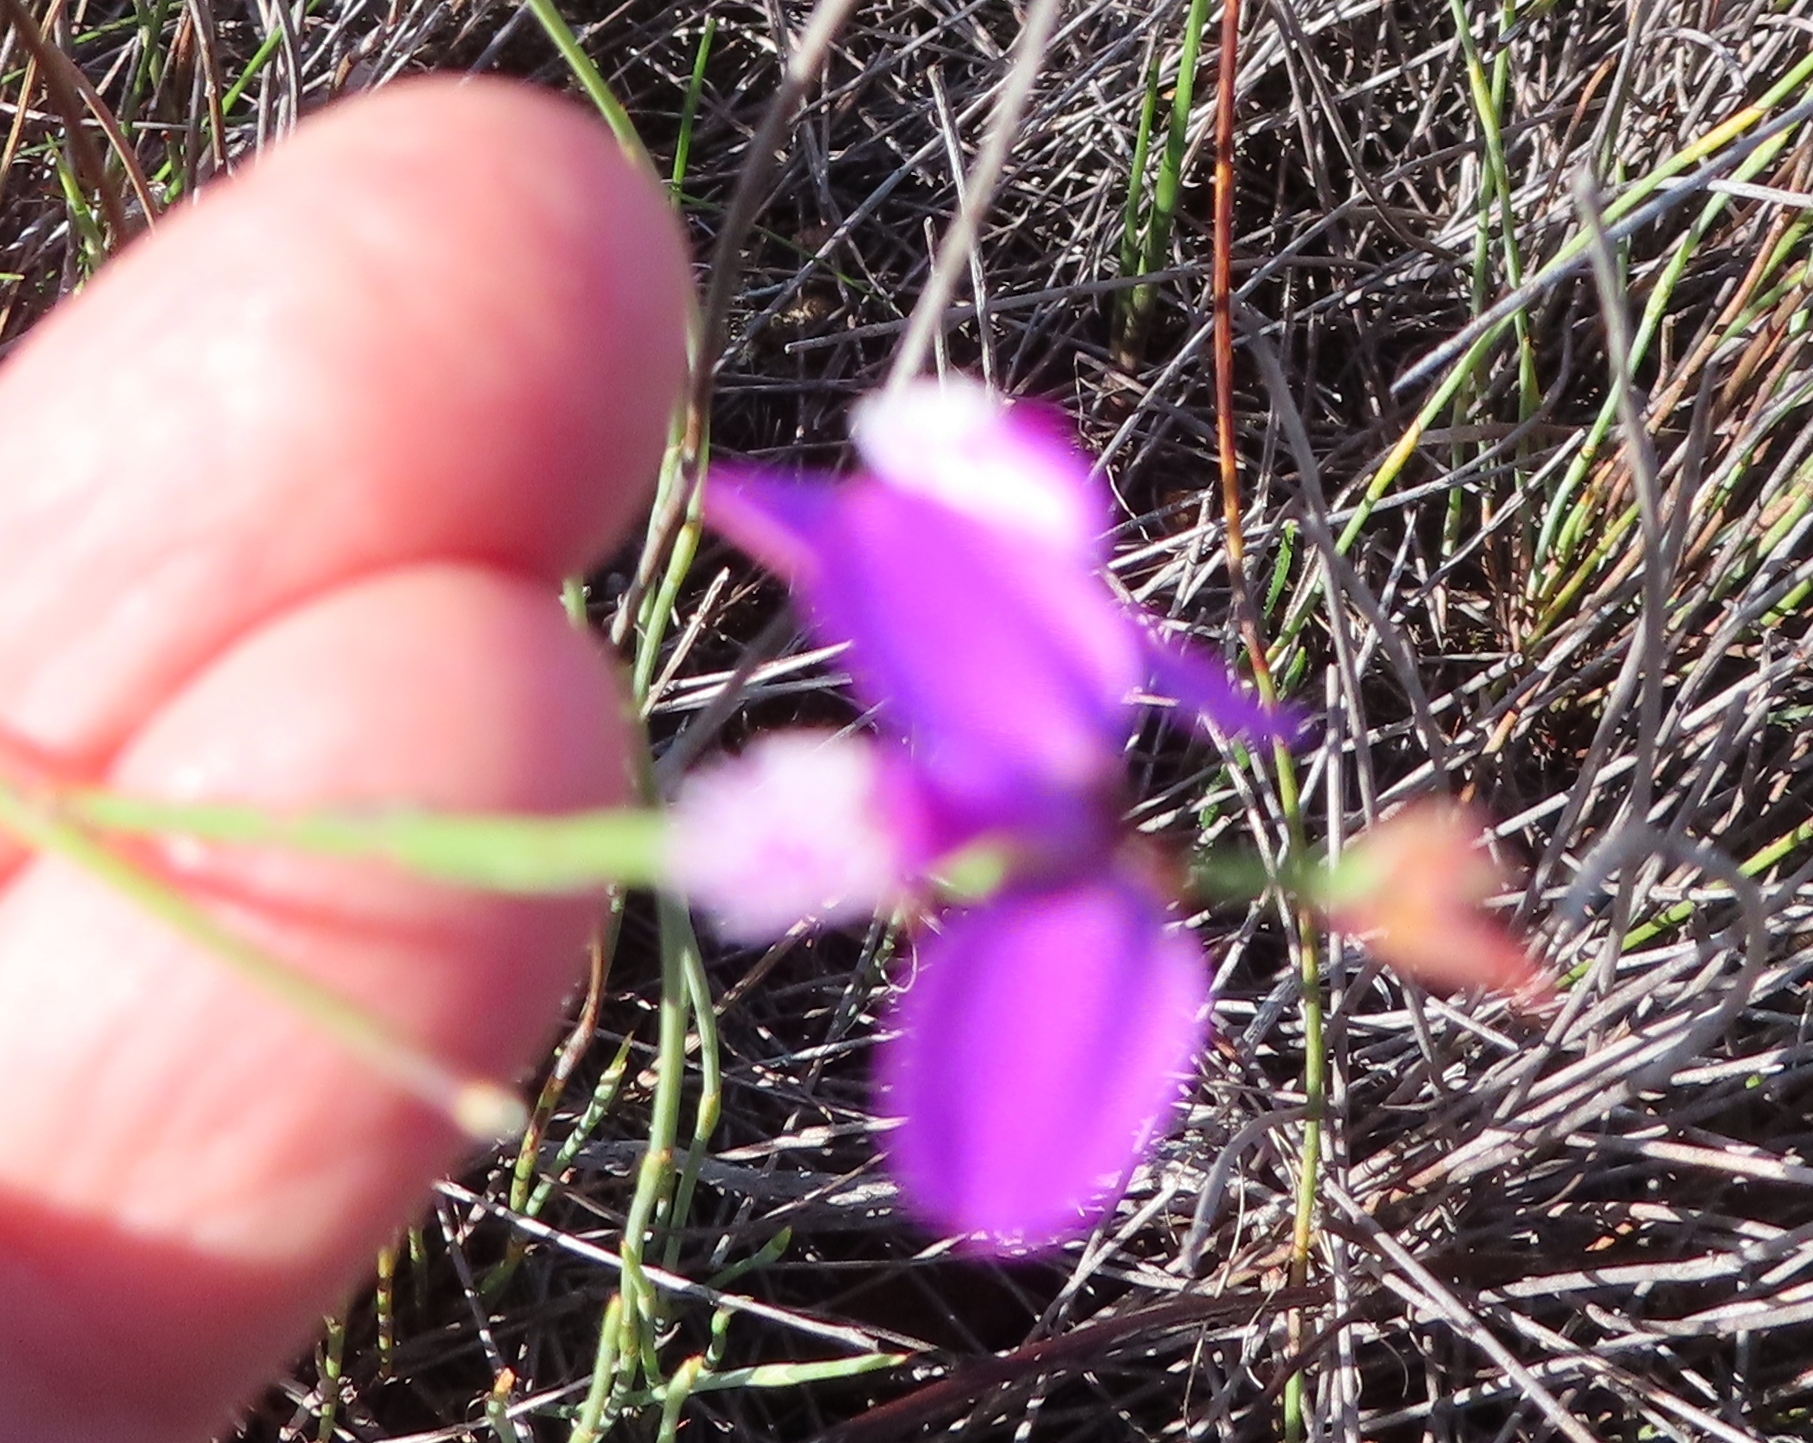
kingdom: Plantae
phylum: Tracheophyta
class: Magnoliopsida
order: Fabales
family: Polygalaceae
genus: Polygala
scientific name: Polygala garcini
